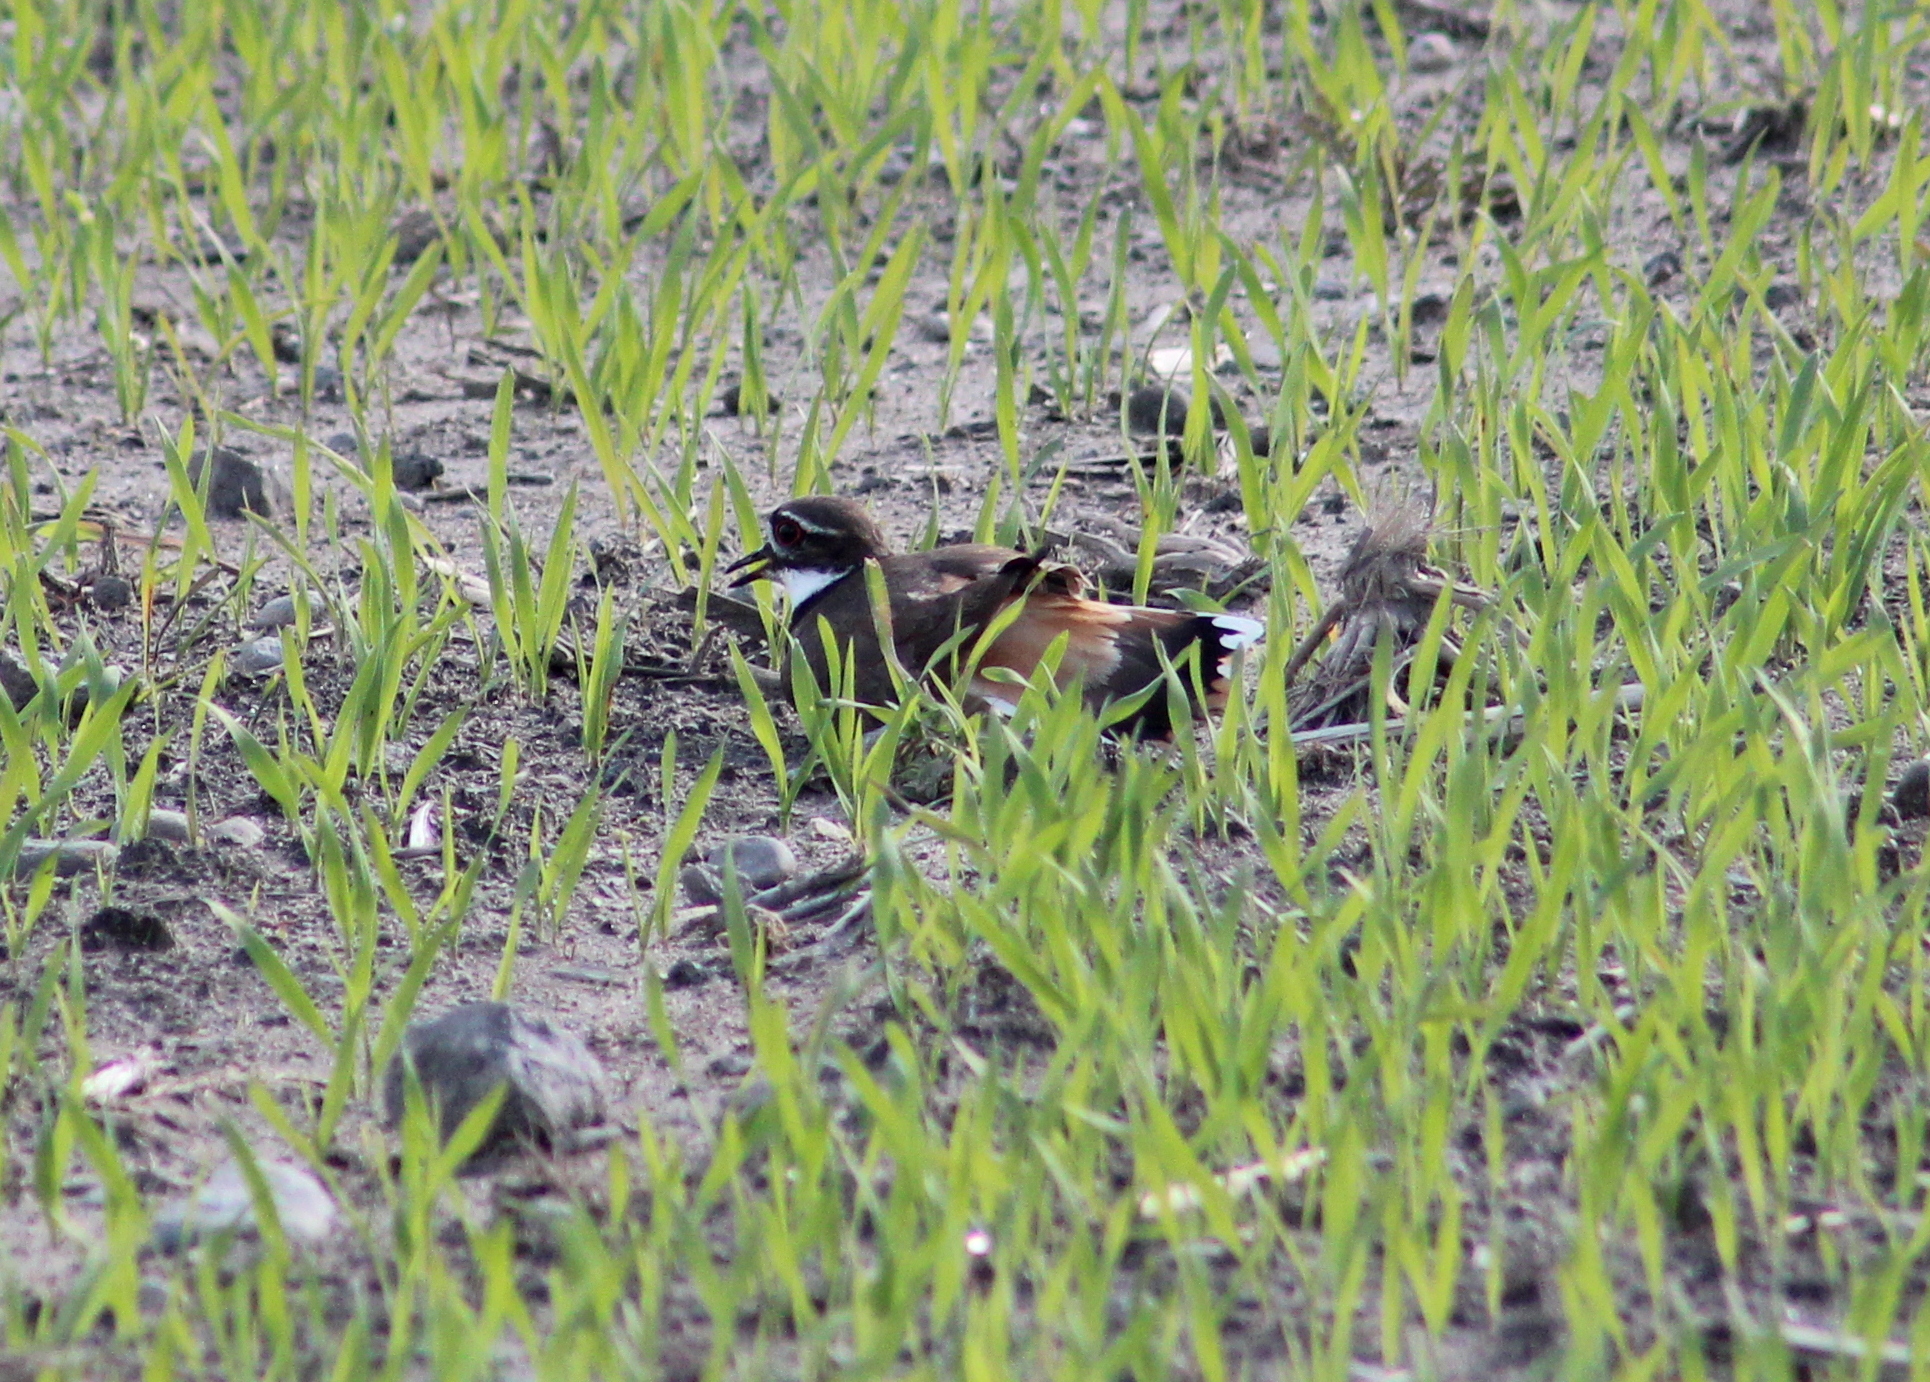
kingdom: Animalia
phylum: Chordata
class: Aves
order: Charadriiformes
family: Charadriidae
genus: Charadrius
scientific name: Charadrius vociferus
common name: Killdeer
